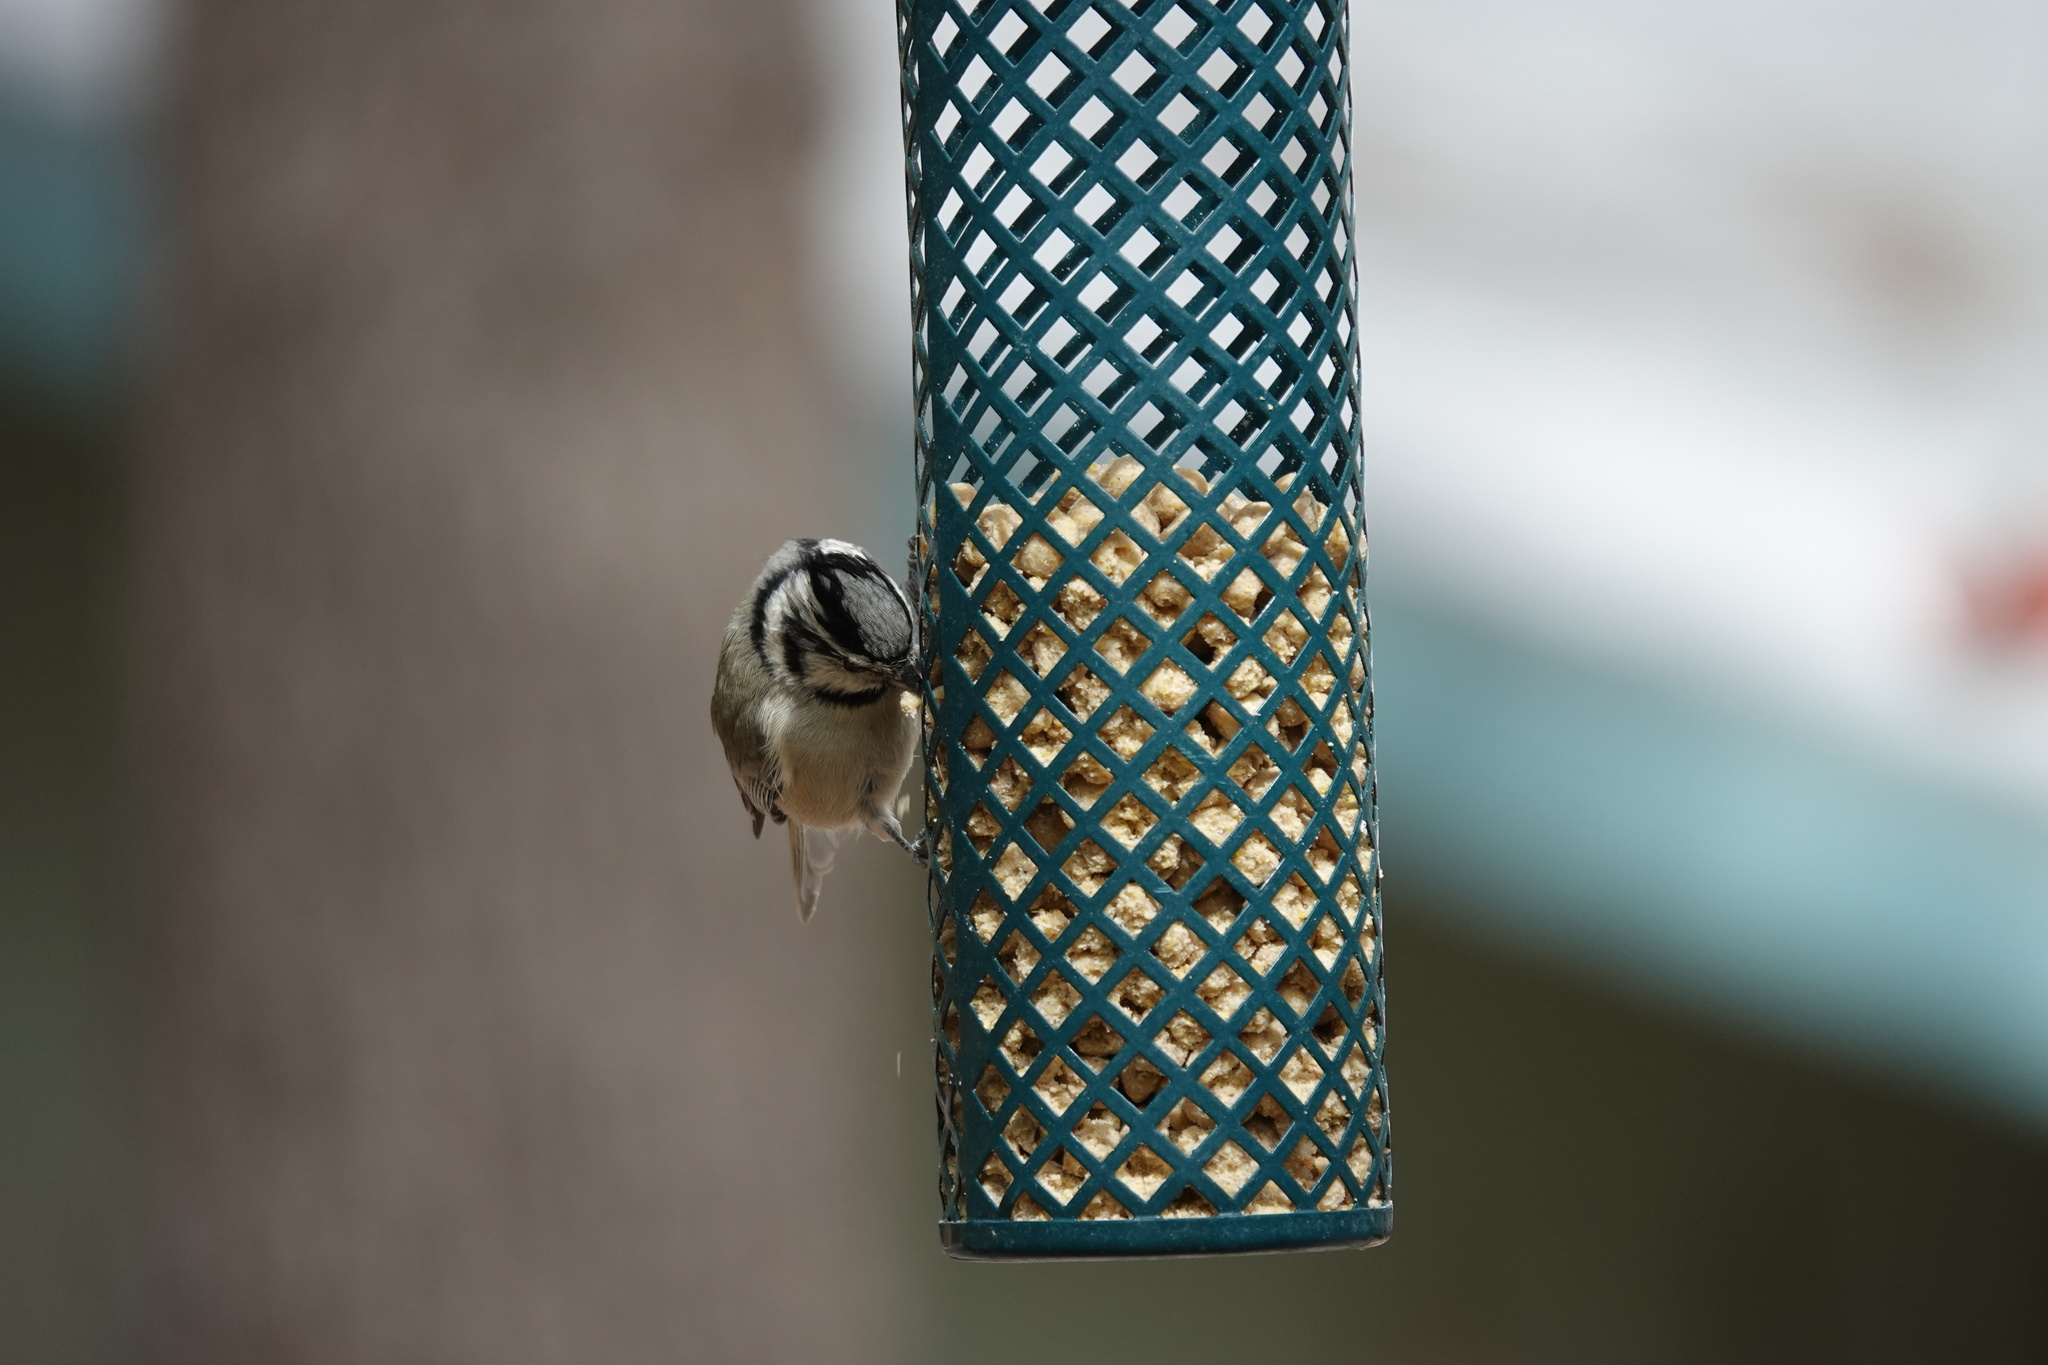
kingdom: Animalia
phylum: Chordata
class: Aves
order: Passeriformes
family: Paridae
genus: Baeolophus
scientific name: Baeolophus wollweberi
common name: Bridled titmouse
